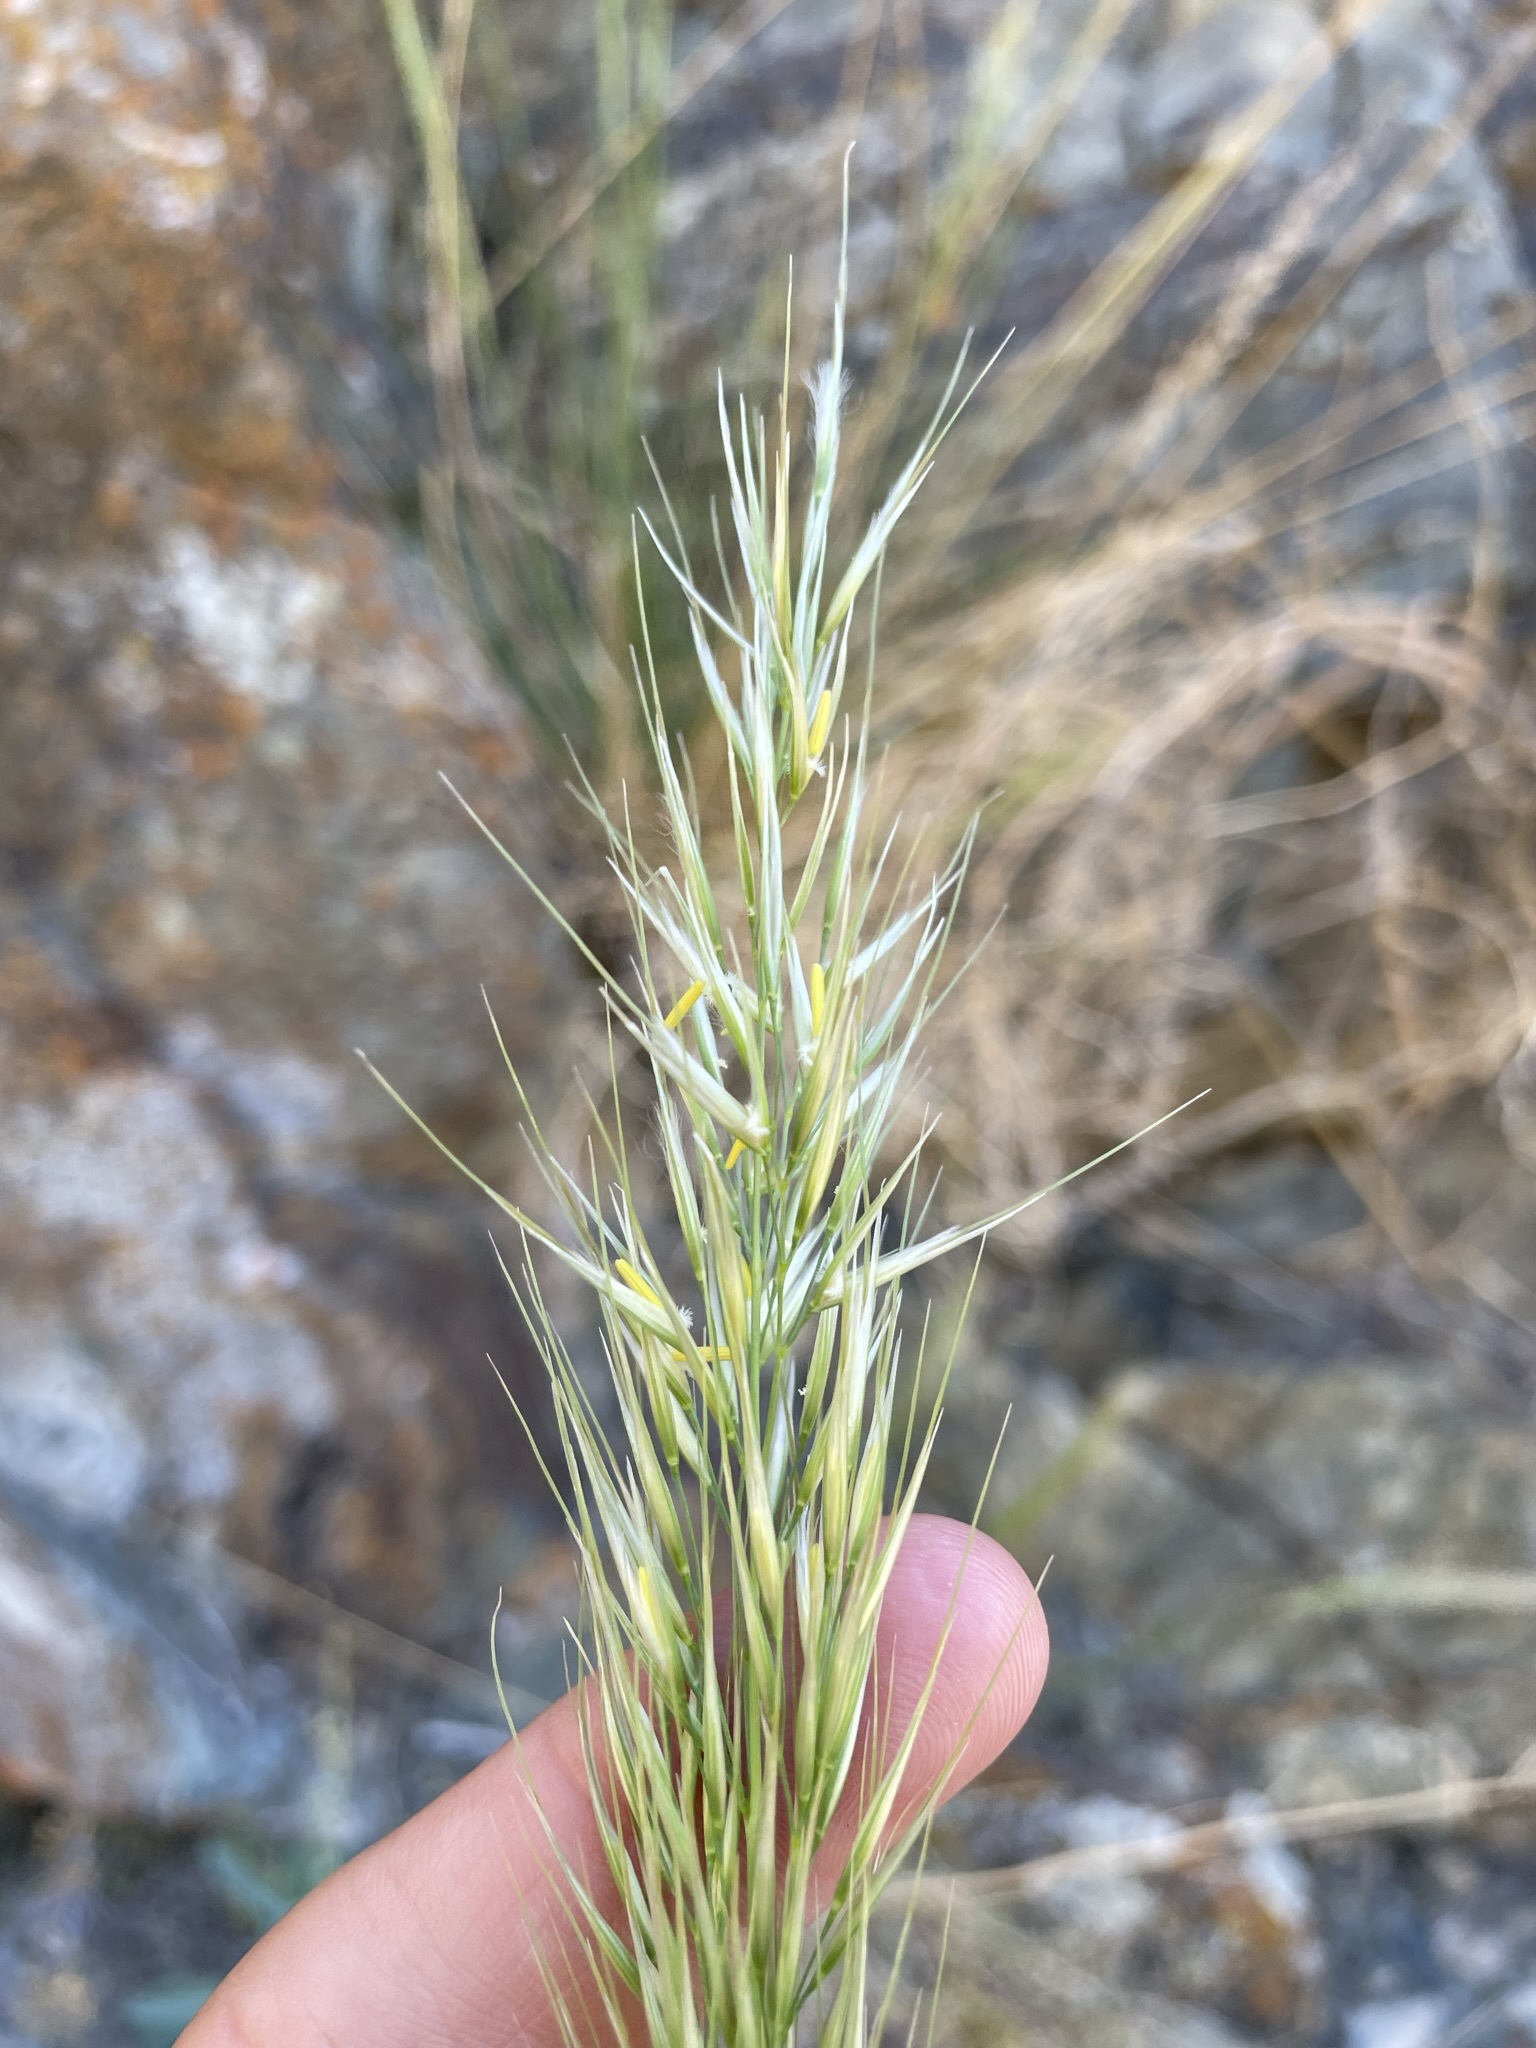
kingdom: Plantae
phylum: Tracheophyta
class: Liliopsida
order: Poales
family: Poaceae
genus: Eriocoma
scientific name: Eriocoma parishii
